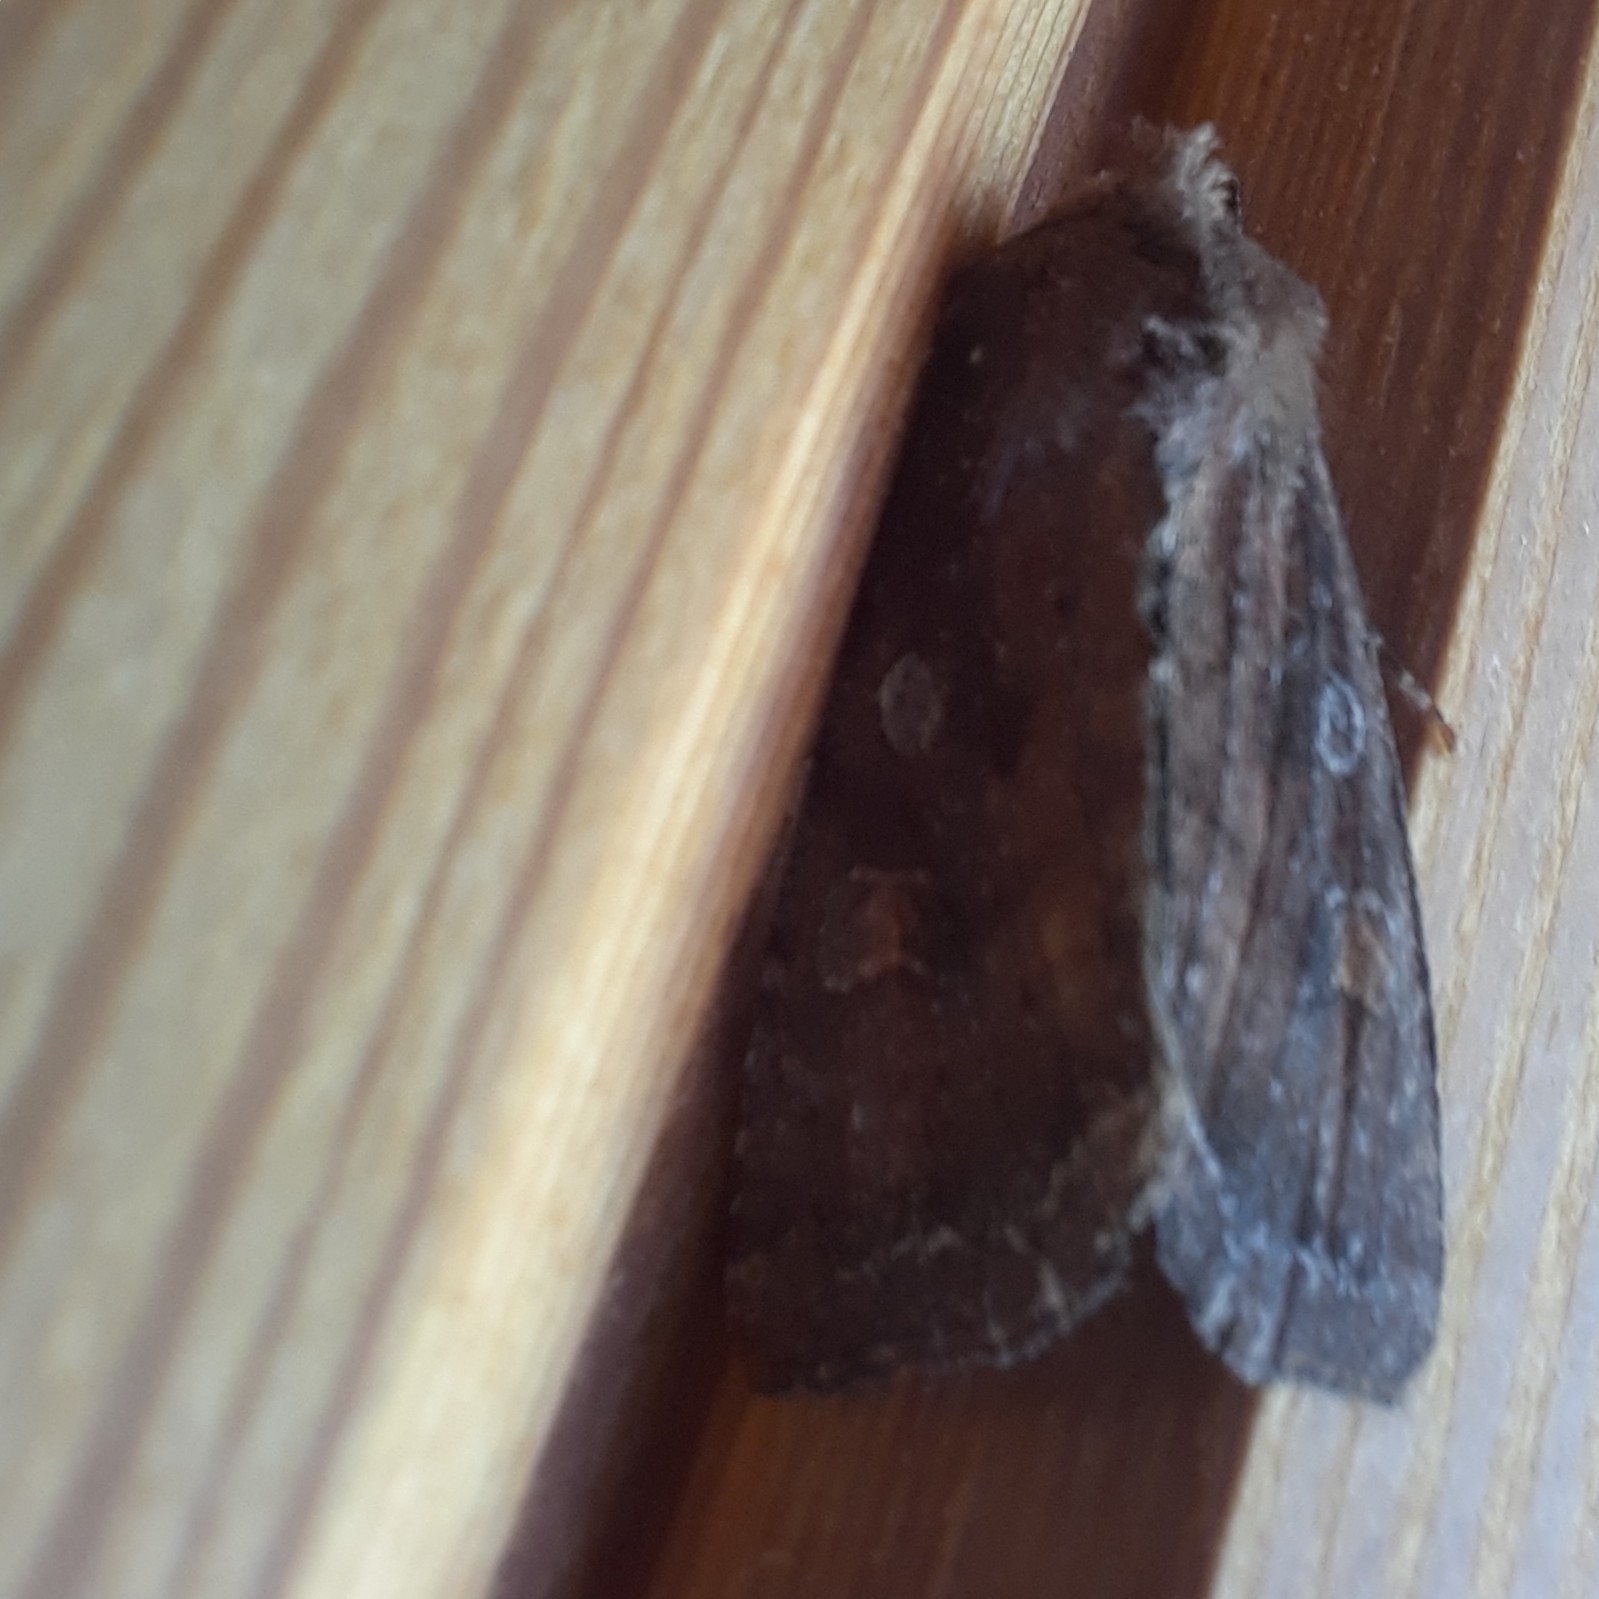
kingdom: Animalia
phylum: Arthropoda
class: Insecta
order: Lepidoptera
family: Noctuidae
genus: Lacanobia
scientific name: Lacanobia oleracea
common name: Bright-line brown-eye
